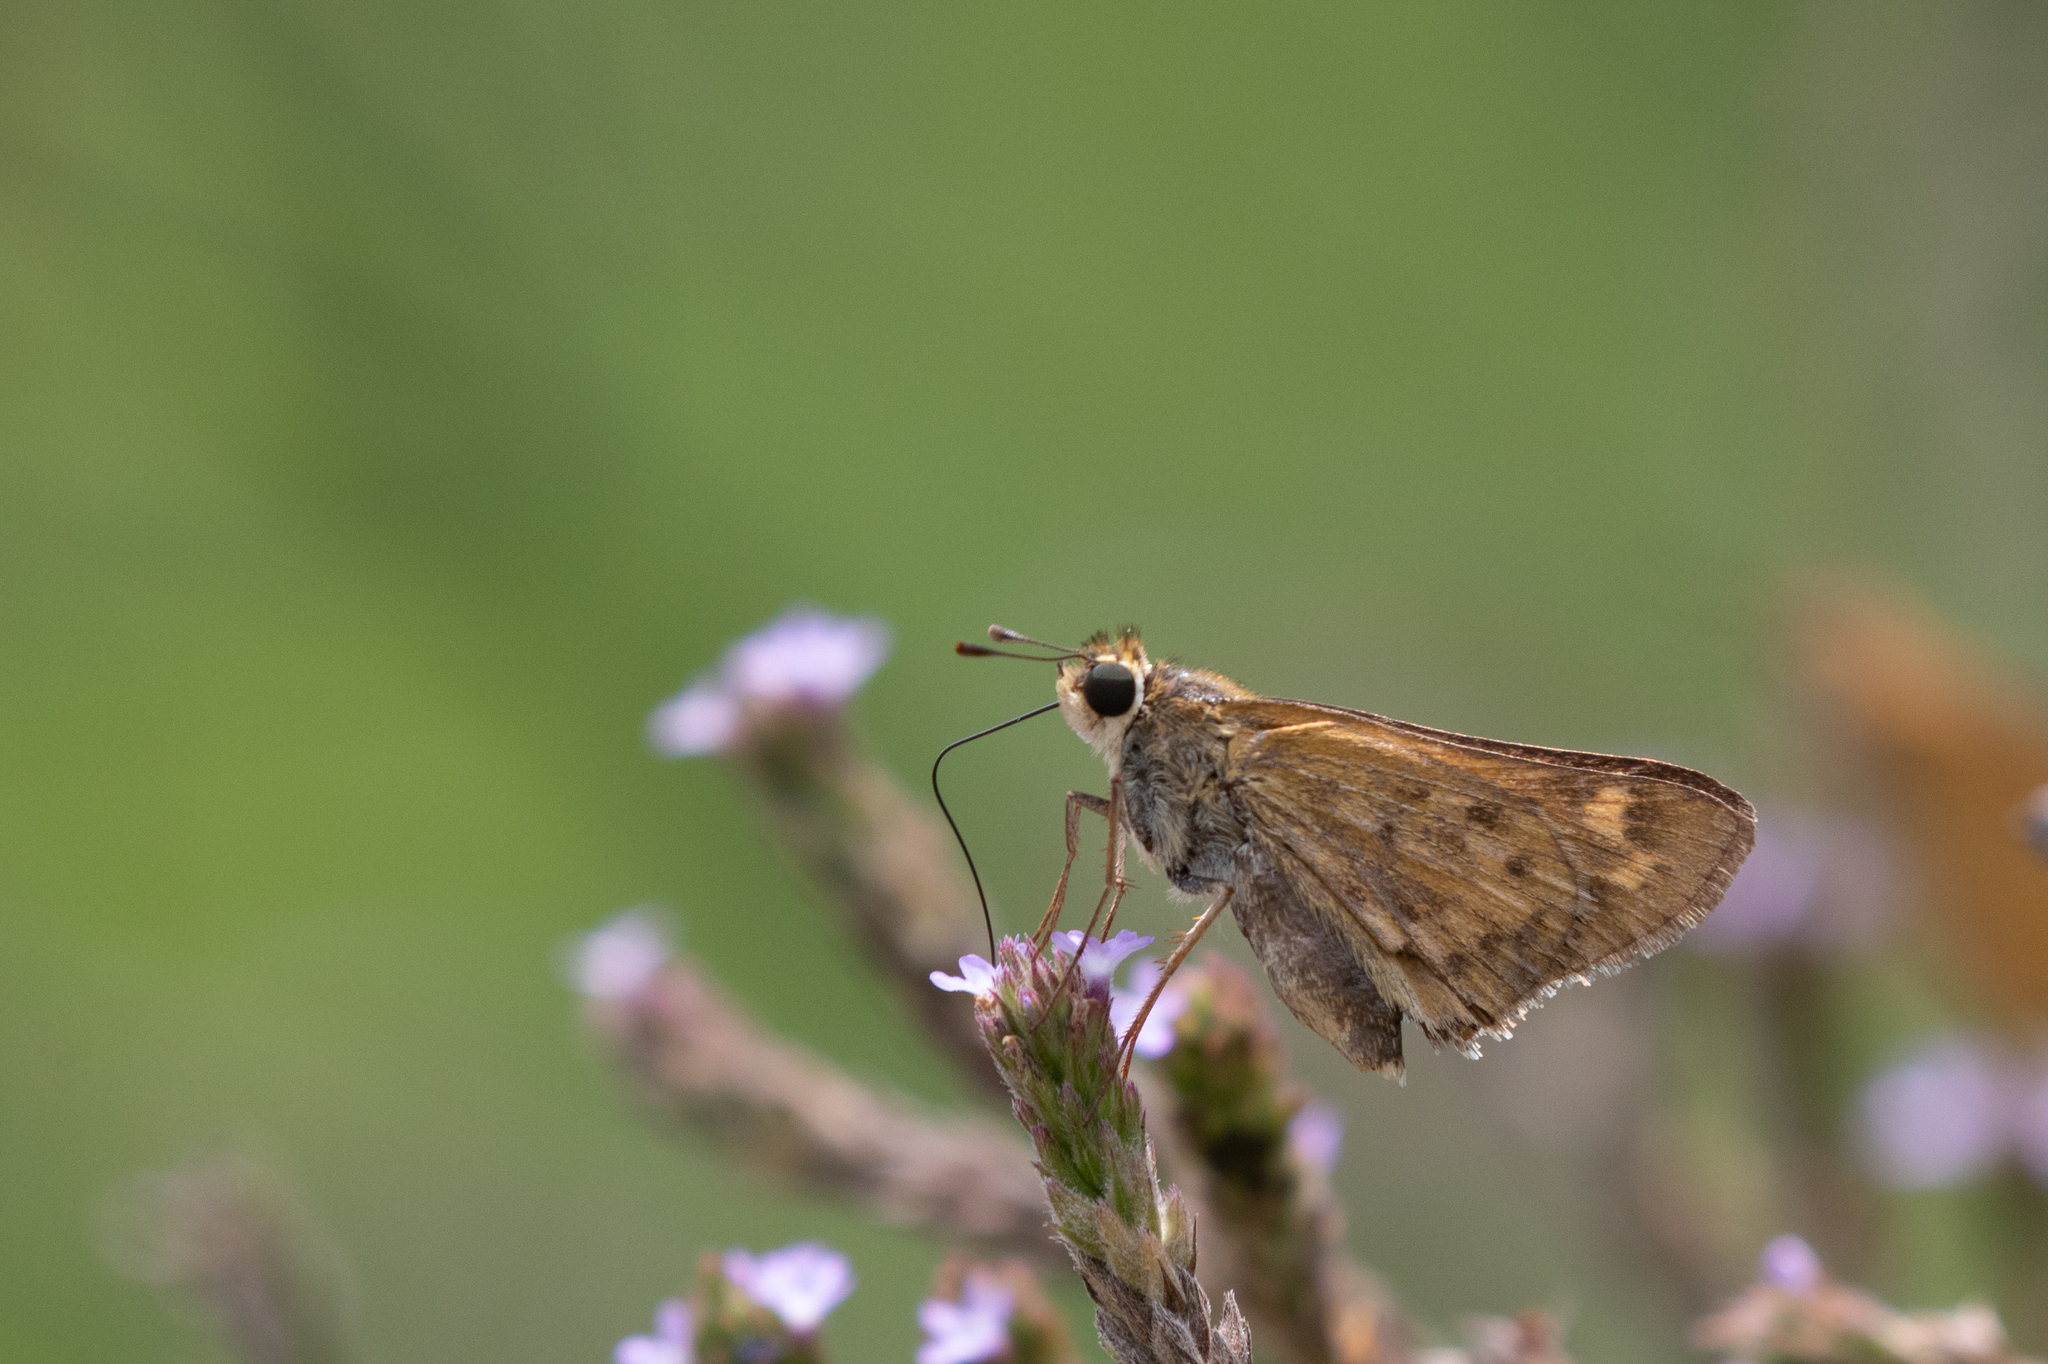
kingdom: Animalia
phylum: Arthropoda
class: Insecta
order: Lepidoptera
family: Hesperiidae
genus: Hylephila
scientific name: Hylephila phyleus
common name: Fiery skipper
